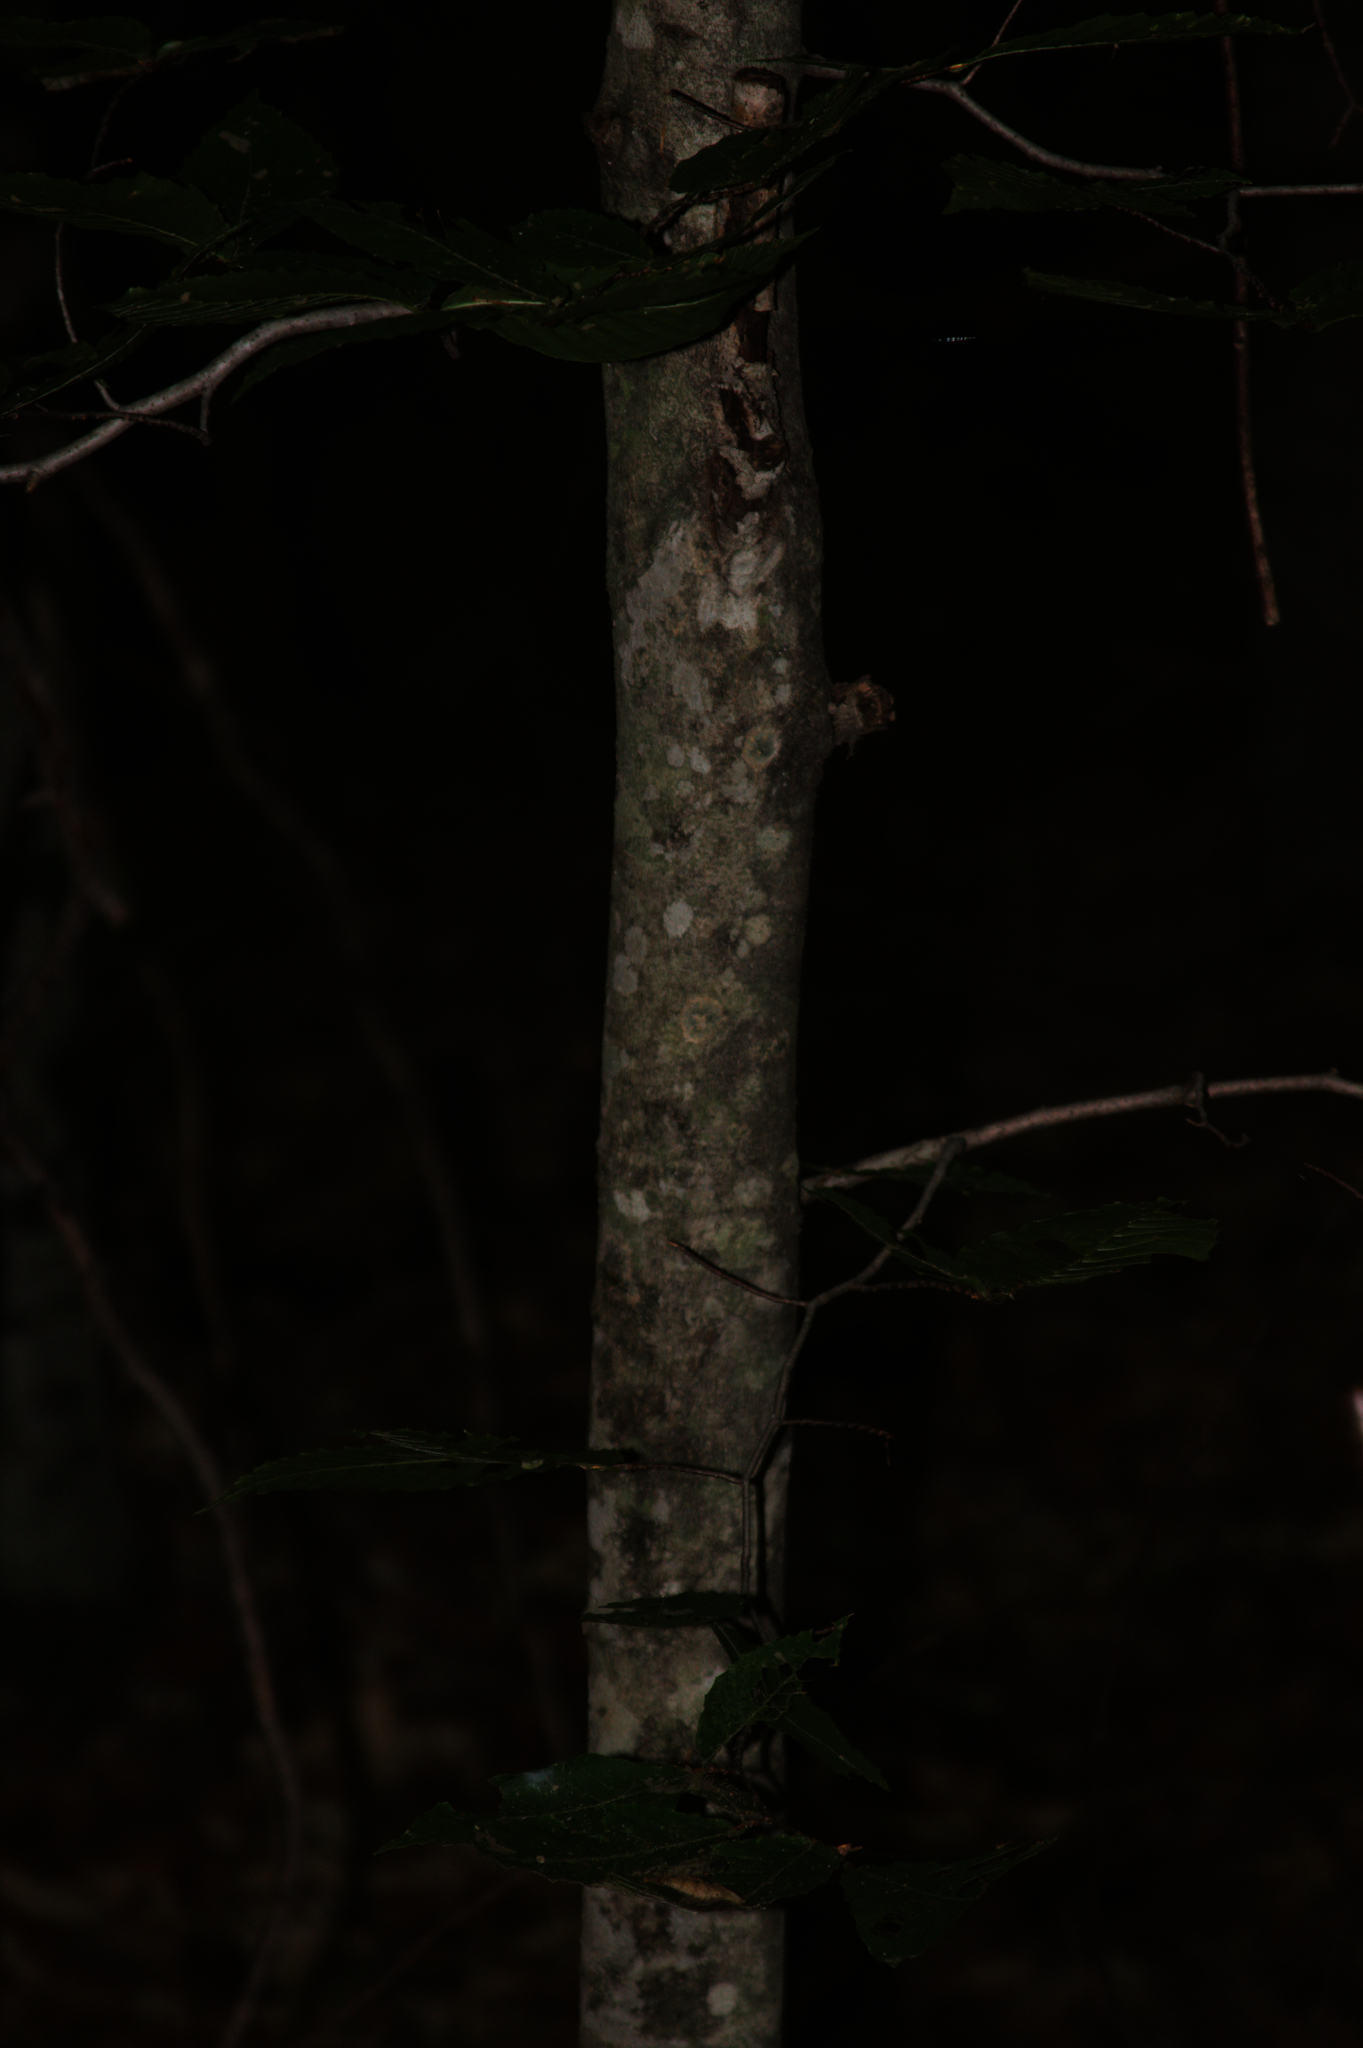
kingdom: Plantae
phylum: Tracheophyta
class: Magnoliopsida
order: Fagales
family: Fagaceae
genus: Fagus
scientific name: Fagus grandifolia
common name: American beech
